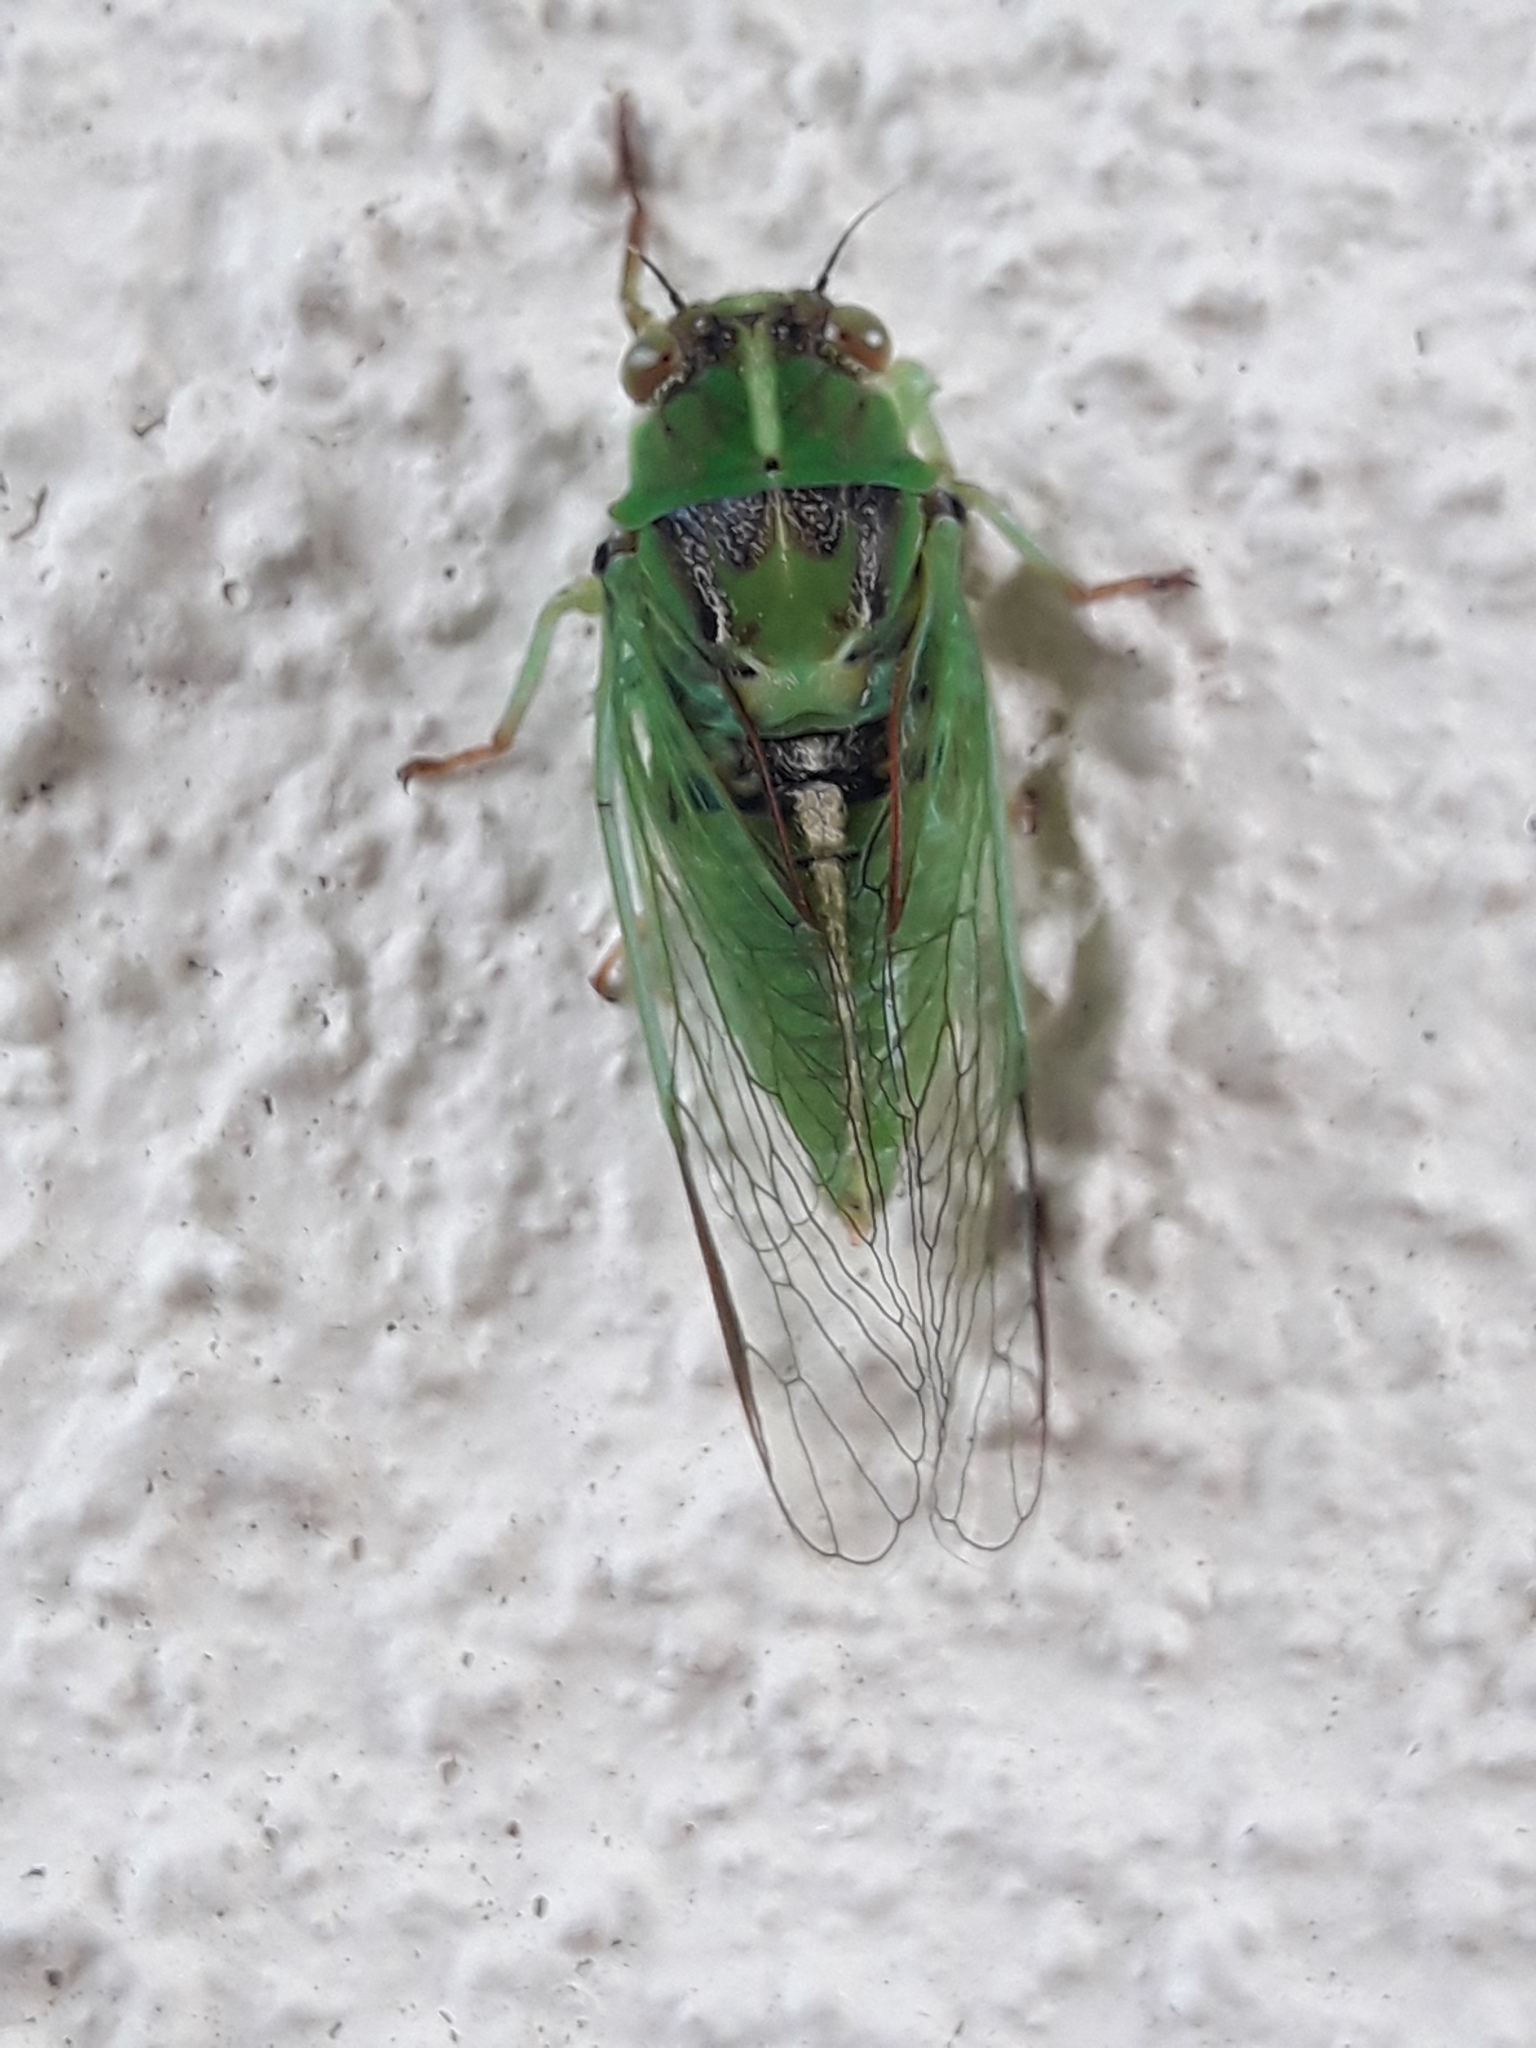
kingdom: Animalia
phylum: Arthropoda
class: Insecta
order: Hemiptera
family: Cicadidae
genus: Kikihia
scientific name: Kikihia paxillulae
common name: Peg's cicada
